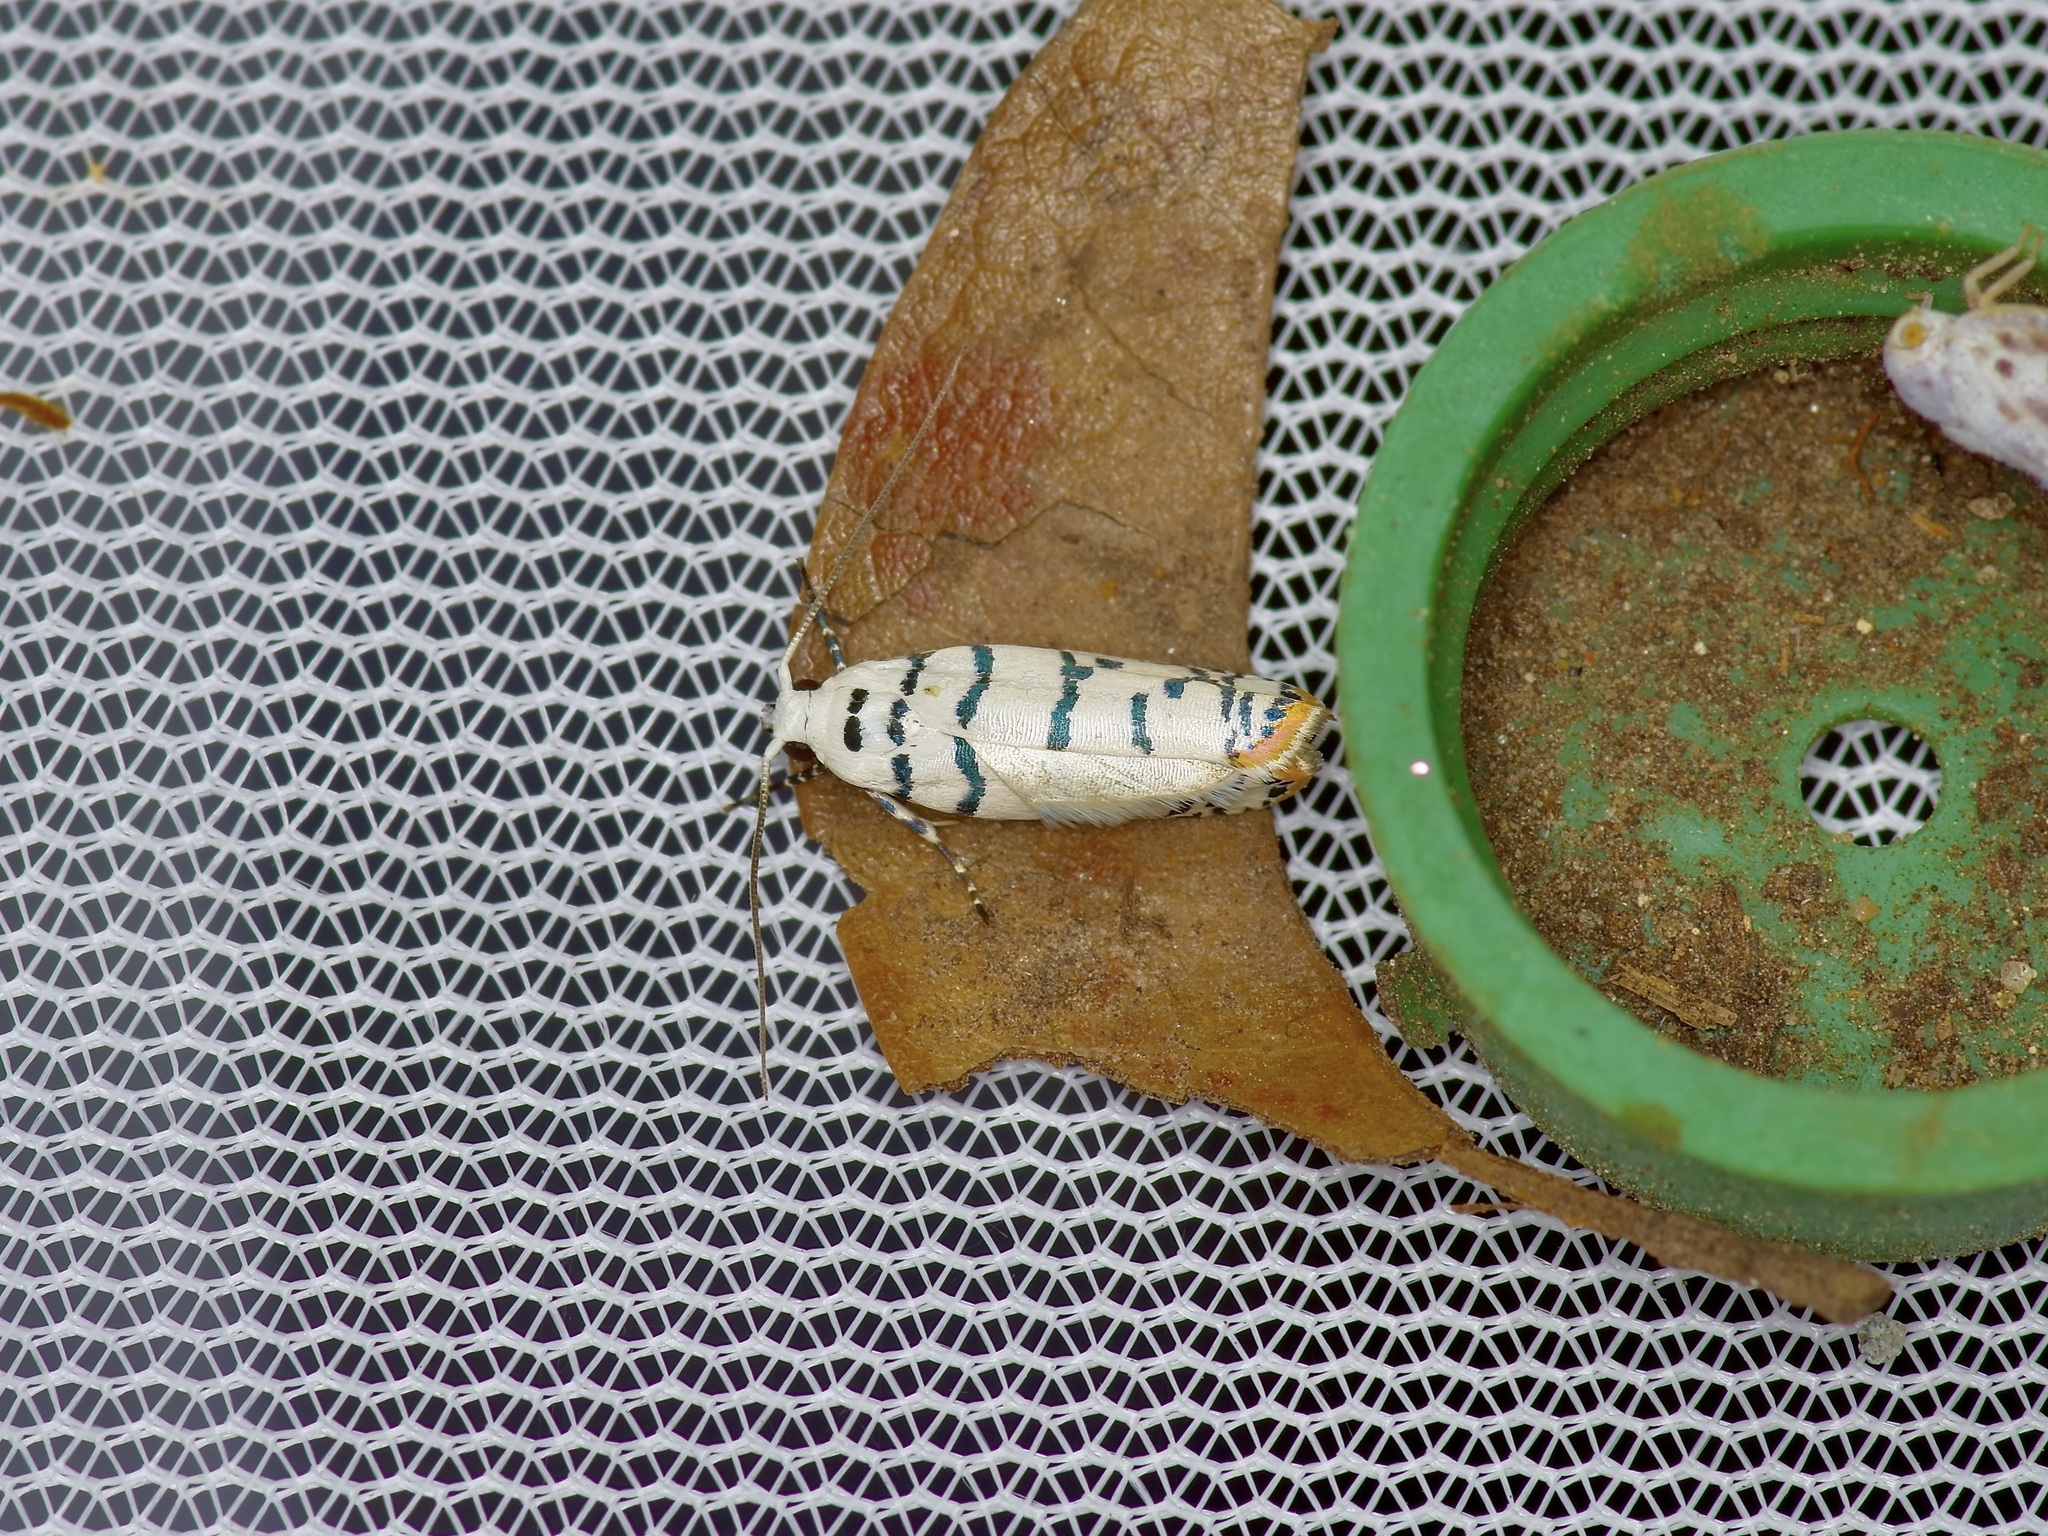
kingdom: Animalia
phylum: Arthropoda
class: Insecta
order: Lepidoptera
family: Ethmiidae
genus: Ethmia
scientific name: Ethmia delliella
